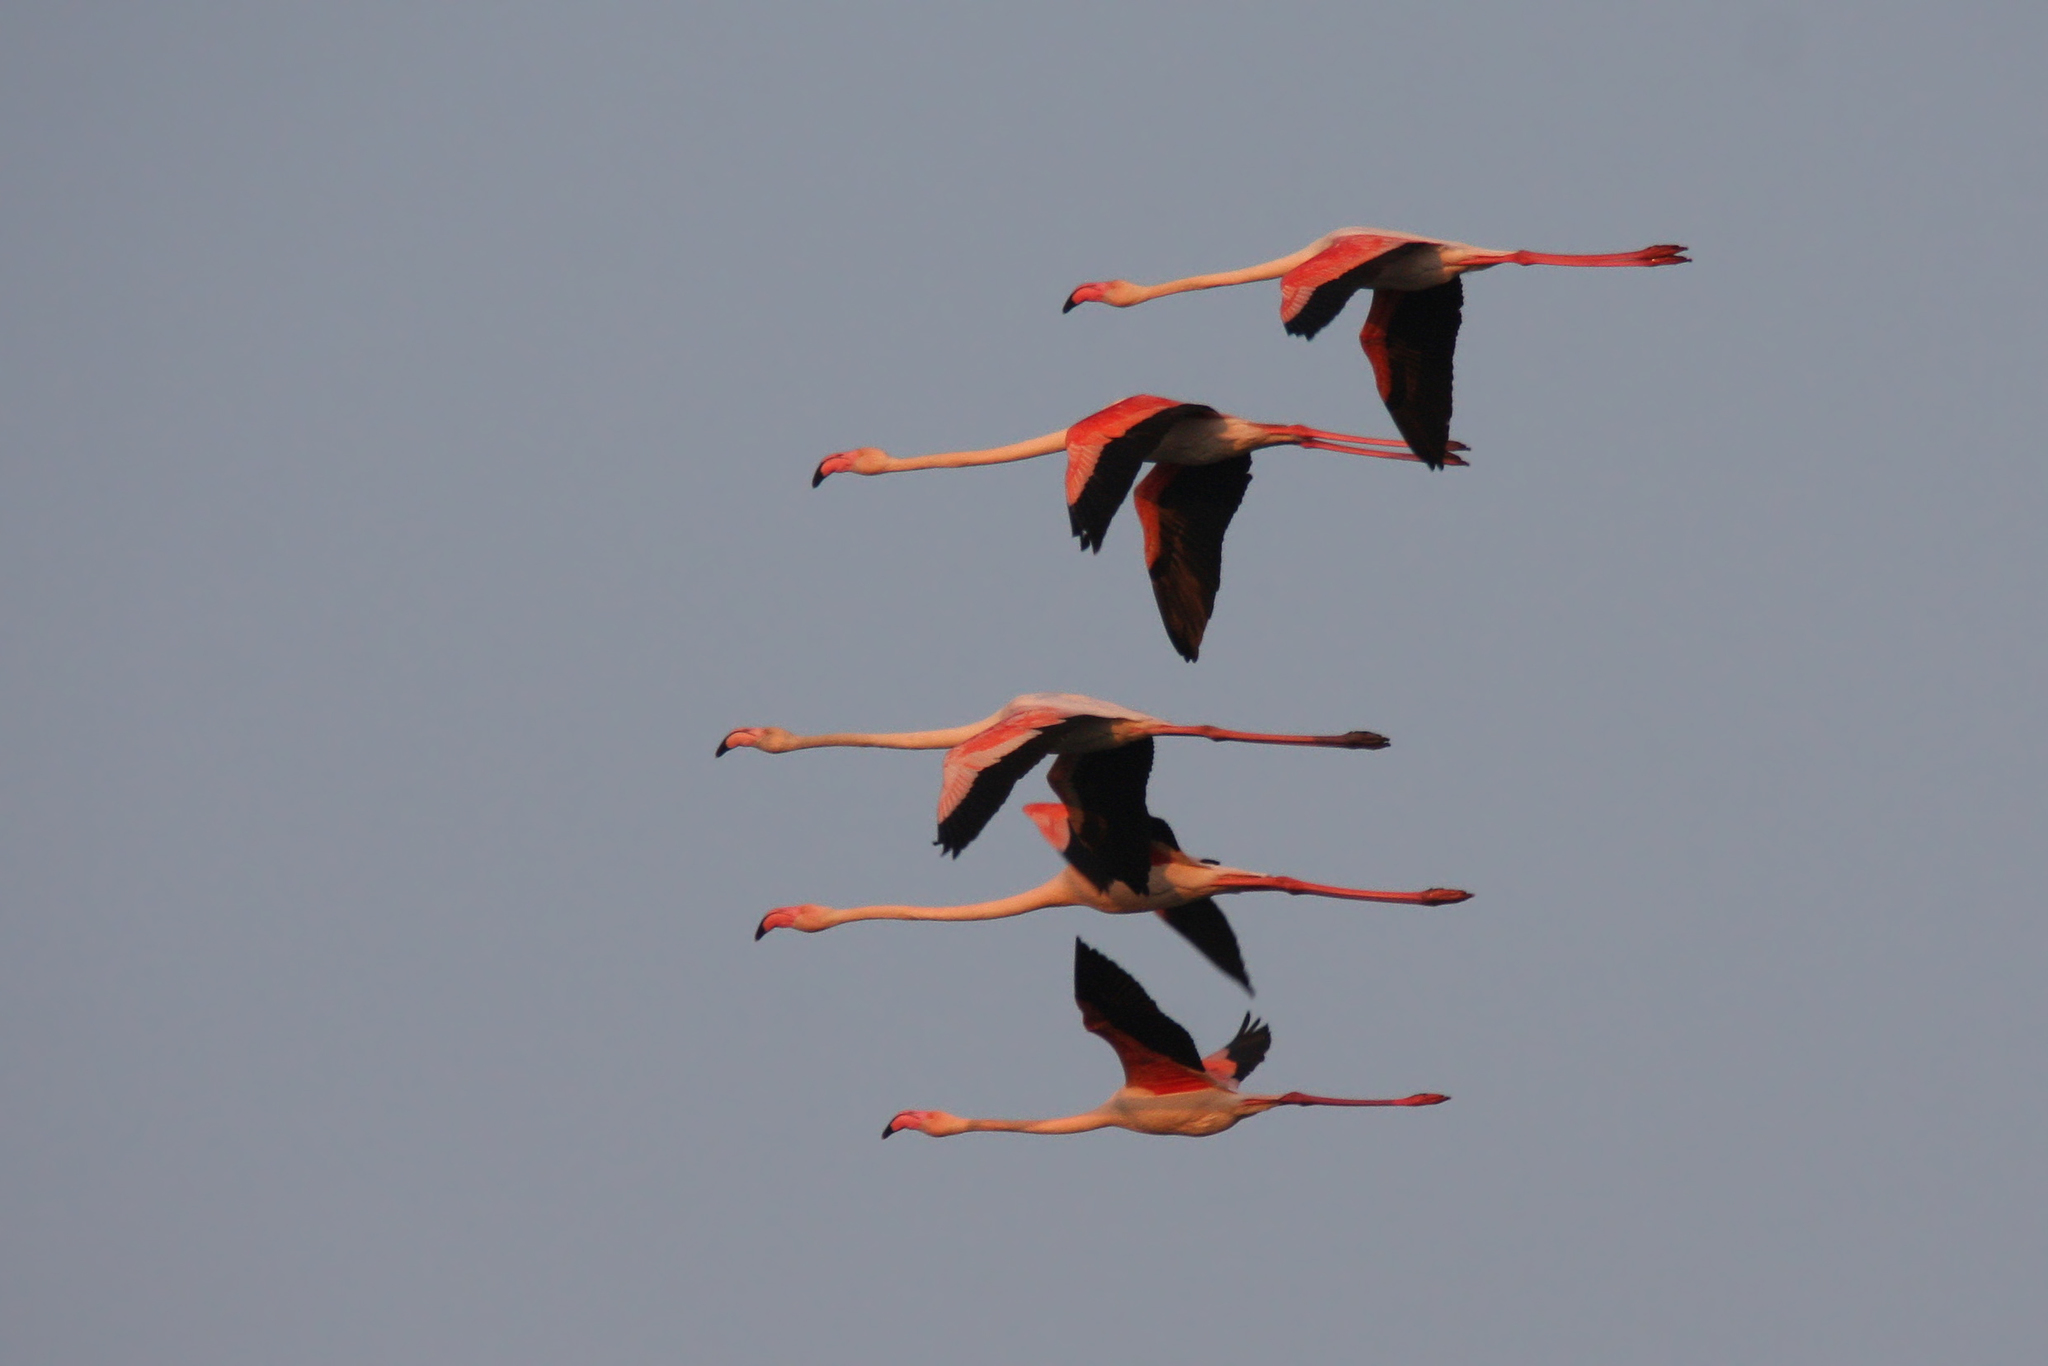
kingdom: Animalia
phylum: Chordata
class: Aves
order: Phoenicopteriformes
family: Phoenicopteridae
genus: Phoenicopterus
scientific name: Phoenicopterus roseus
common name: Greater flamingo
